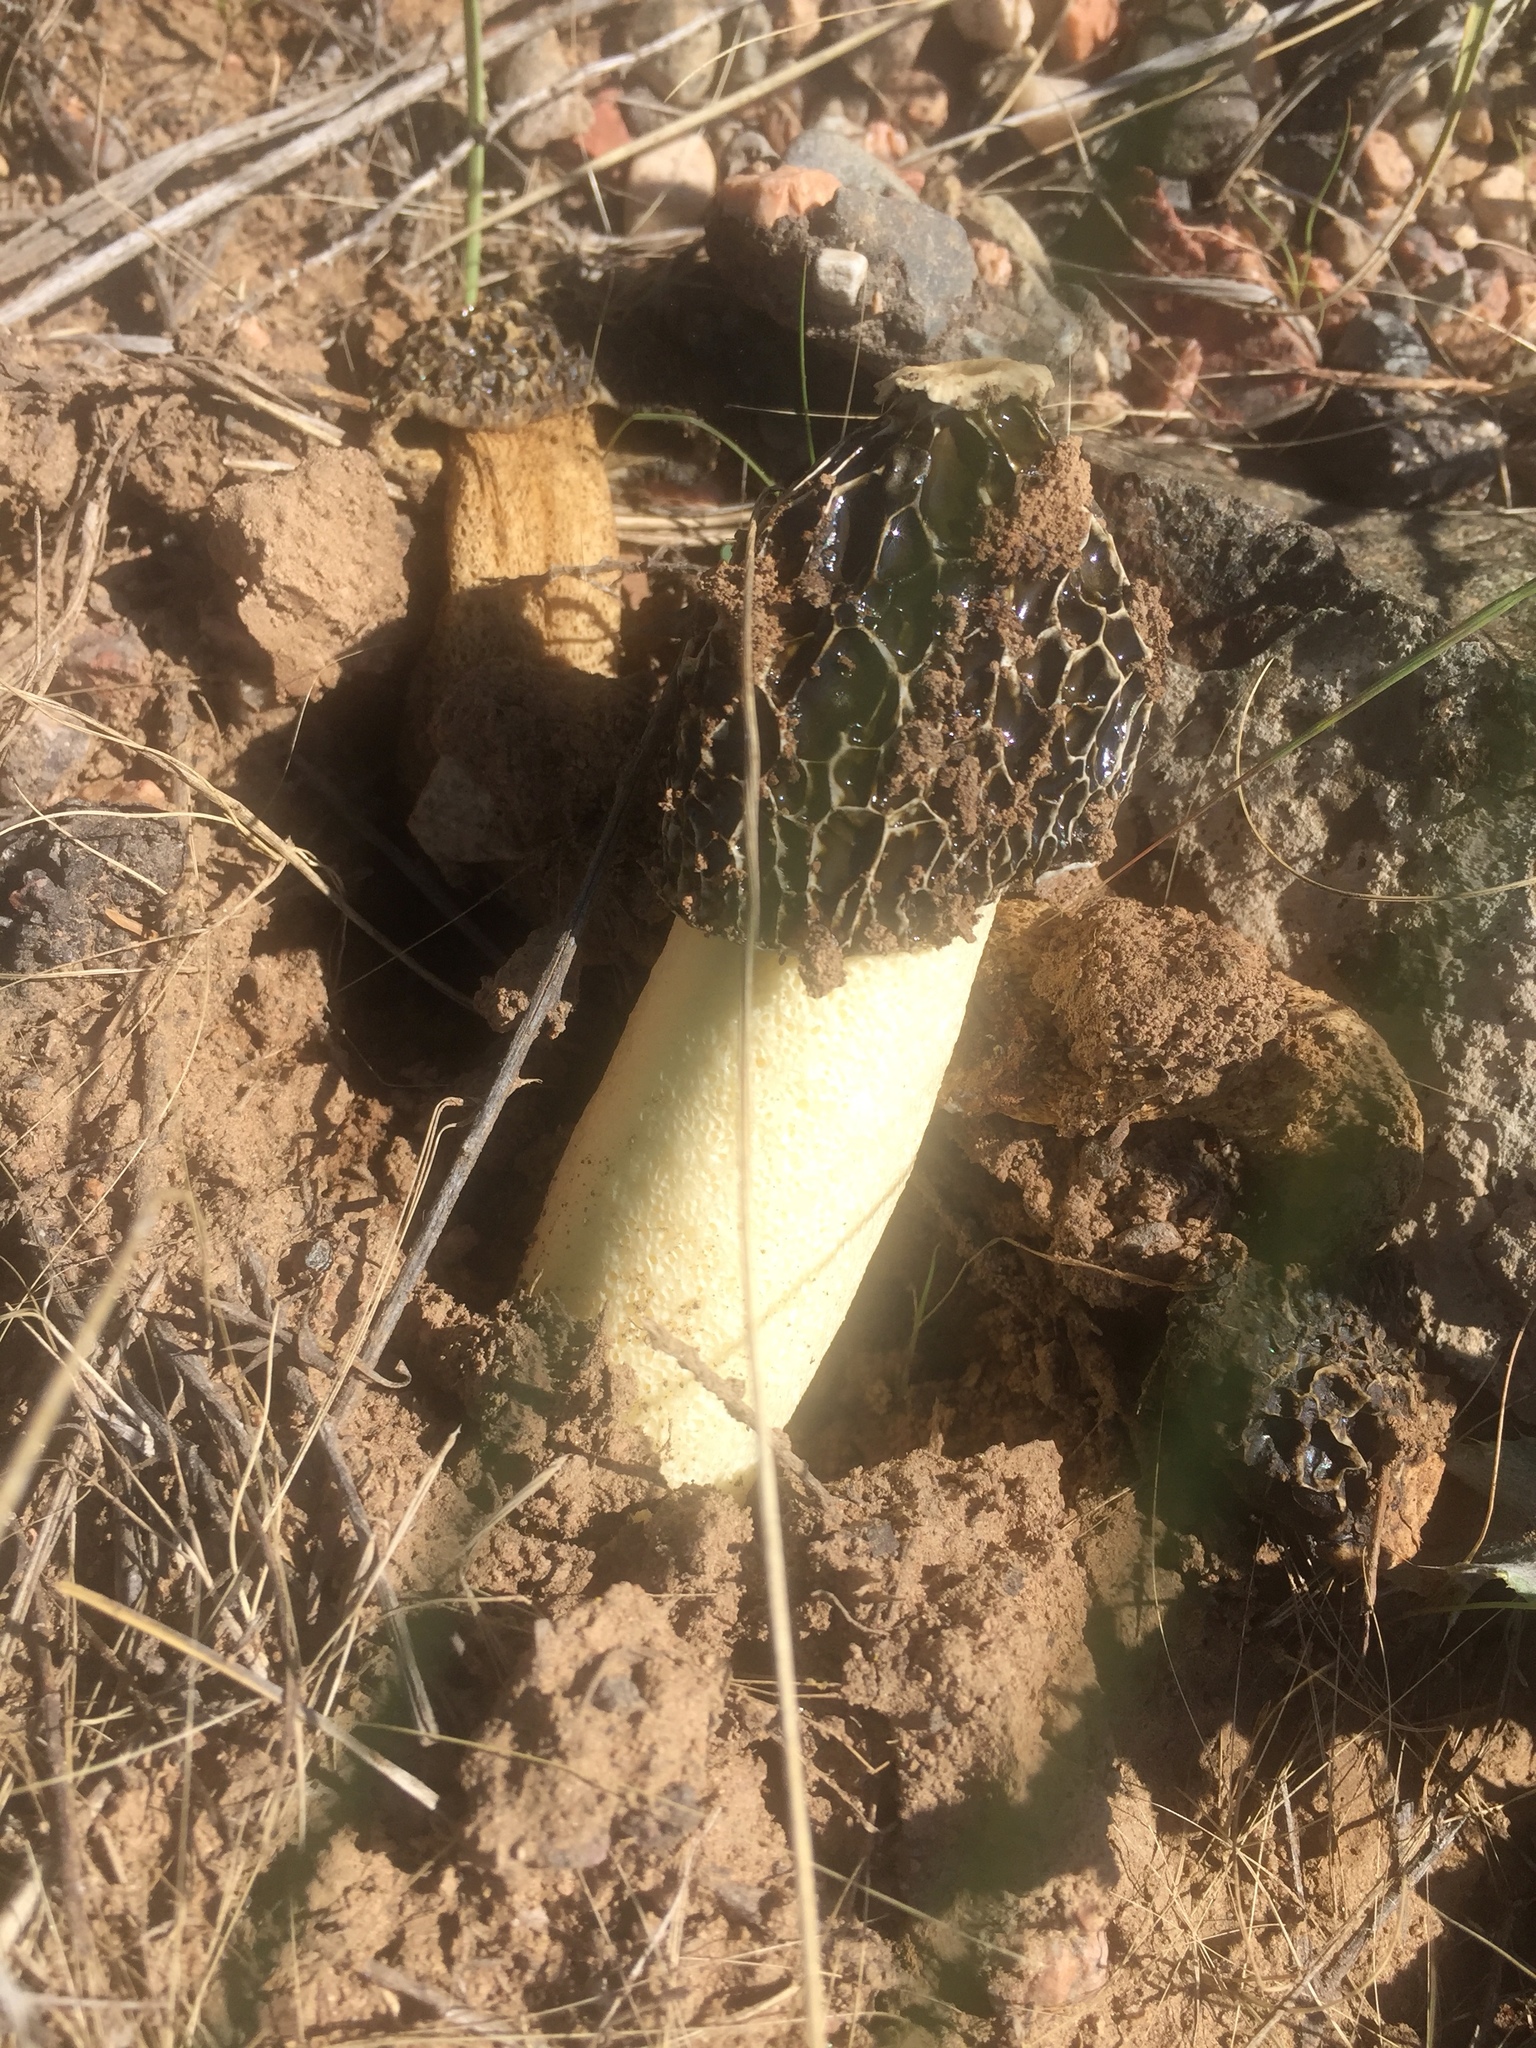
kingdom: Fungi
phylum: Basidiomycota
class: Agaricomycetes
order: Phallales
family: Phallaceae
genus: Phallus
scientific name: Phallus
